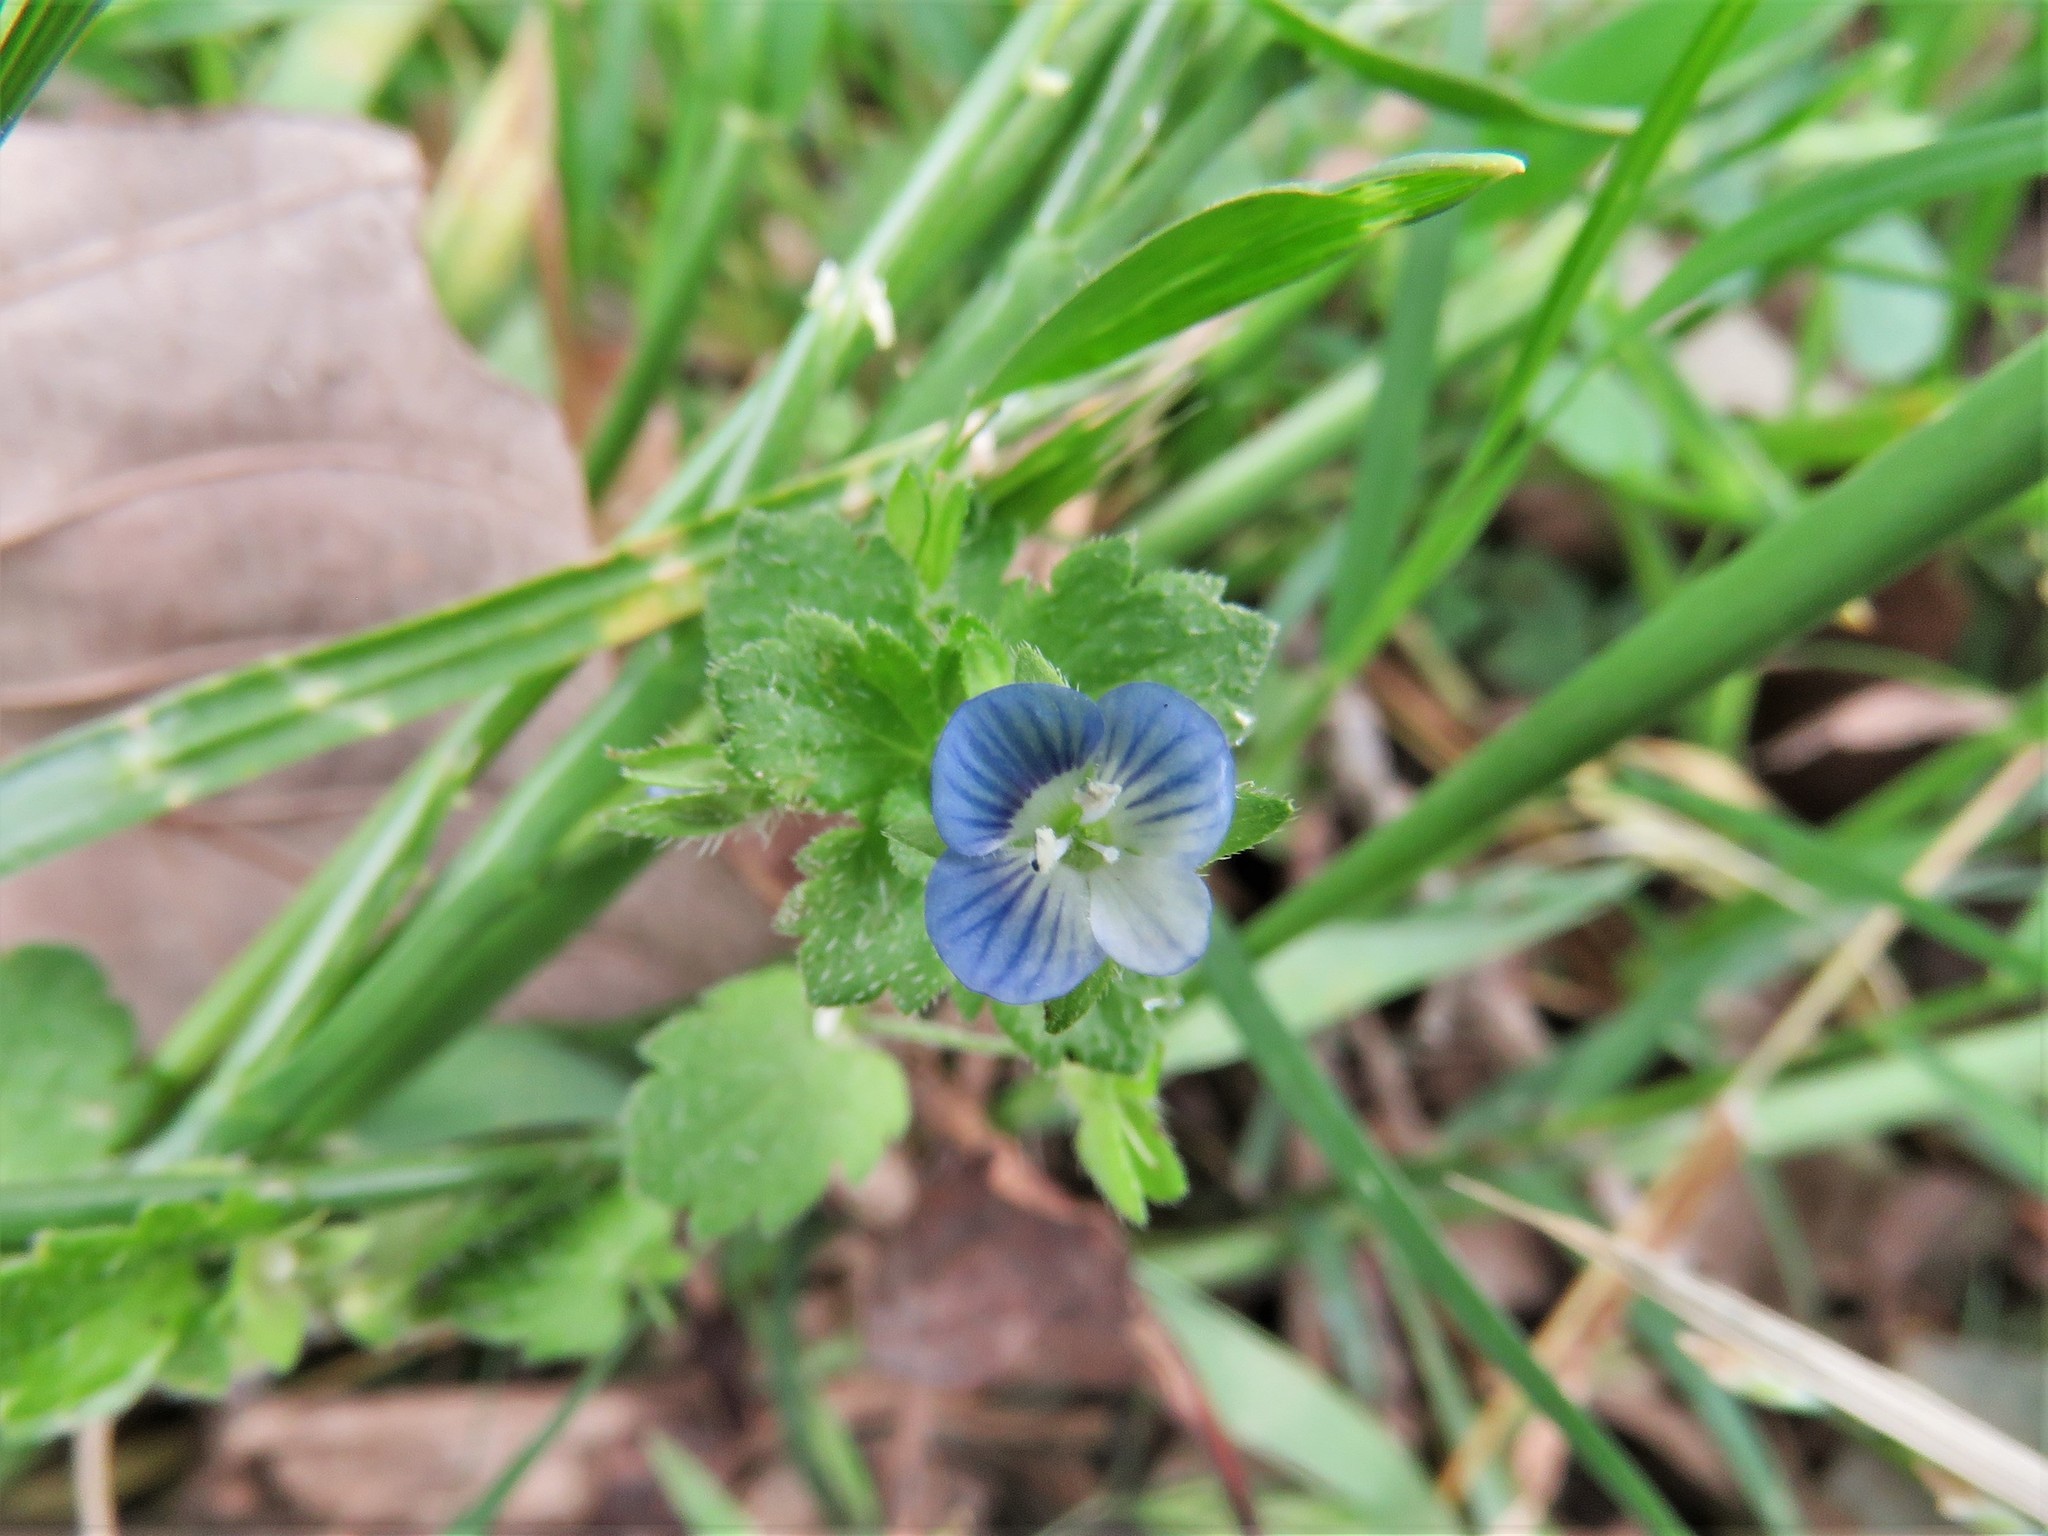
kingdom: Plantae
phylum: Tracheophyta
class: Magnoliopsida
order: Lamiales
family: Plantaginaceae
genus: Veronica
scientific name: Veronica persica
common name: Common field-speedwell
